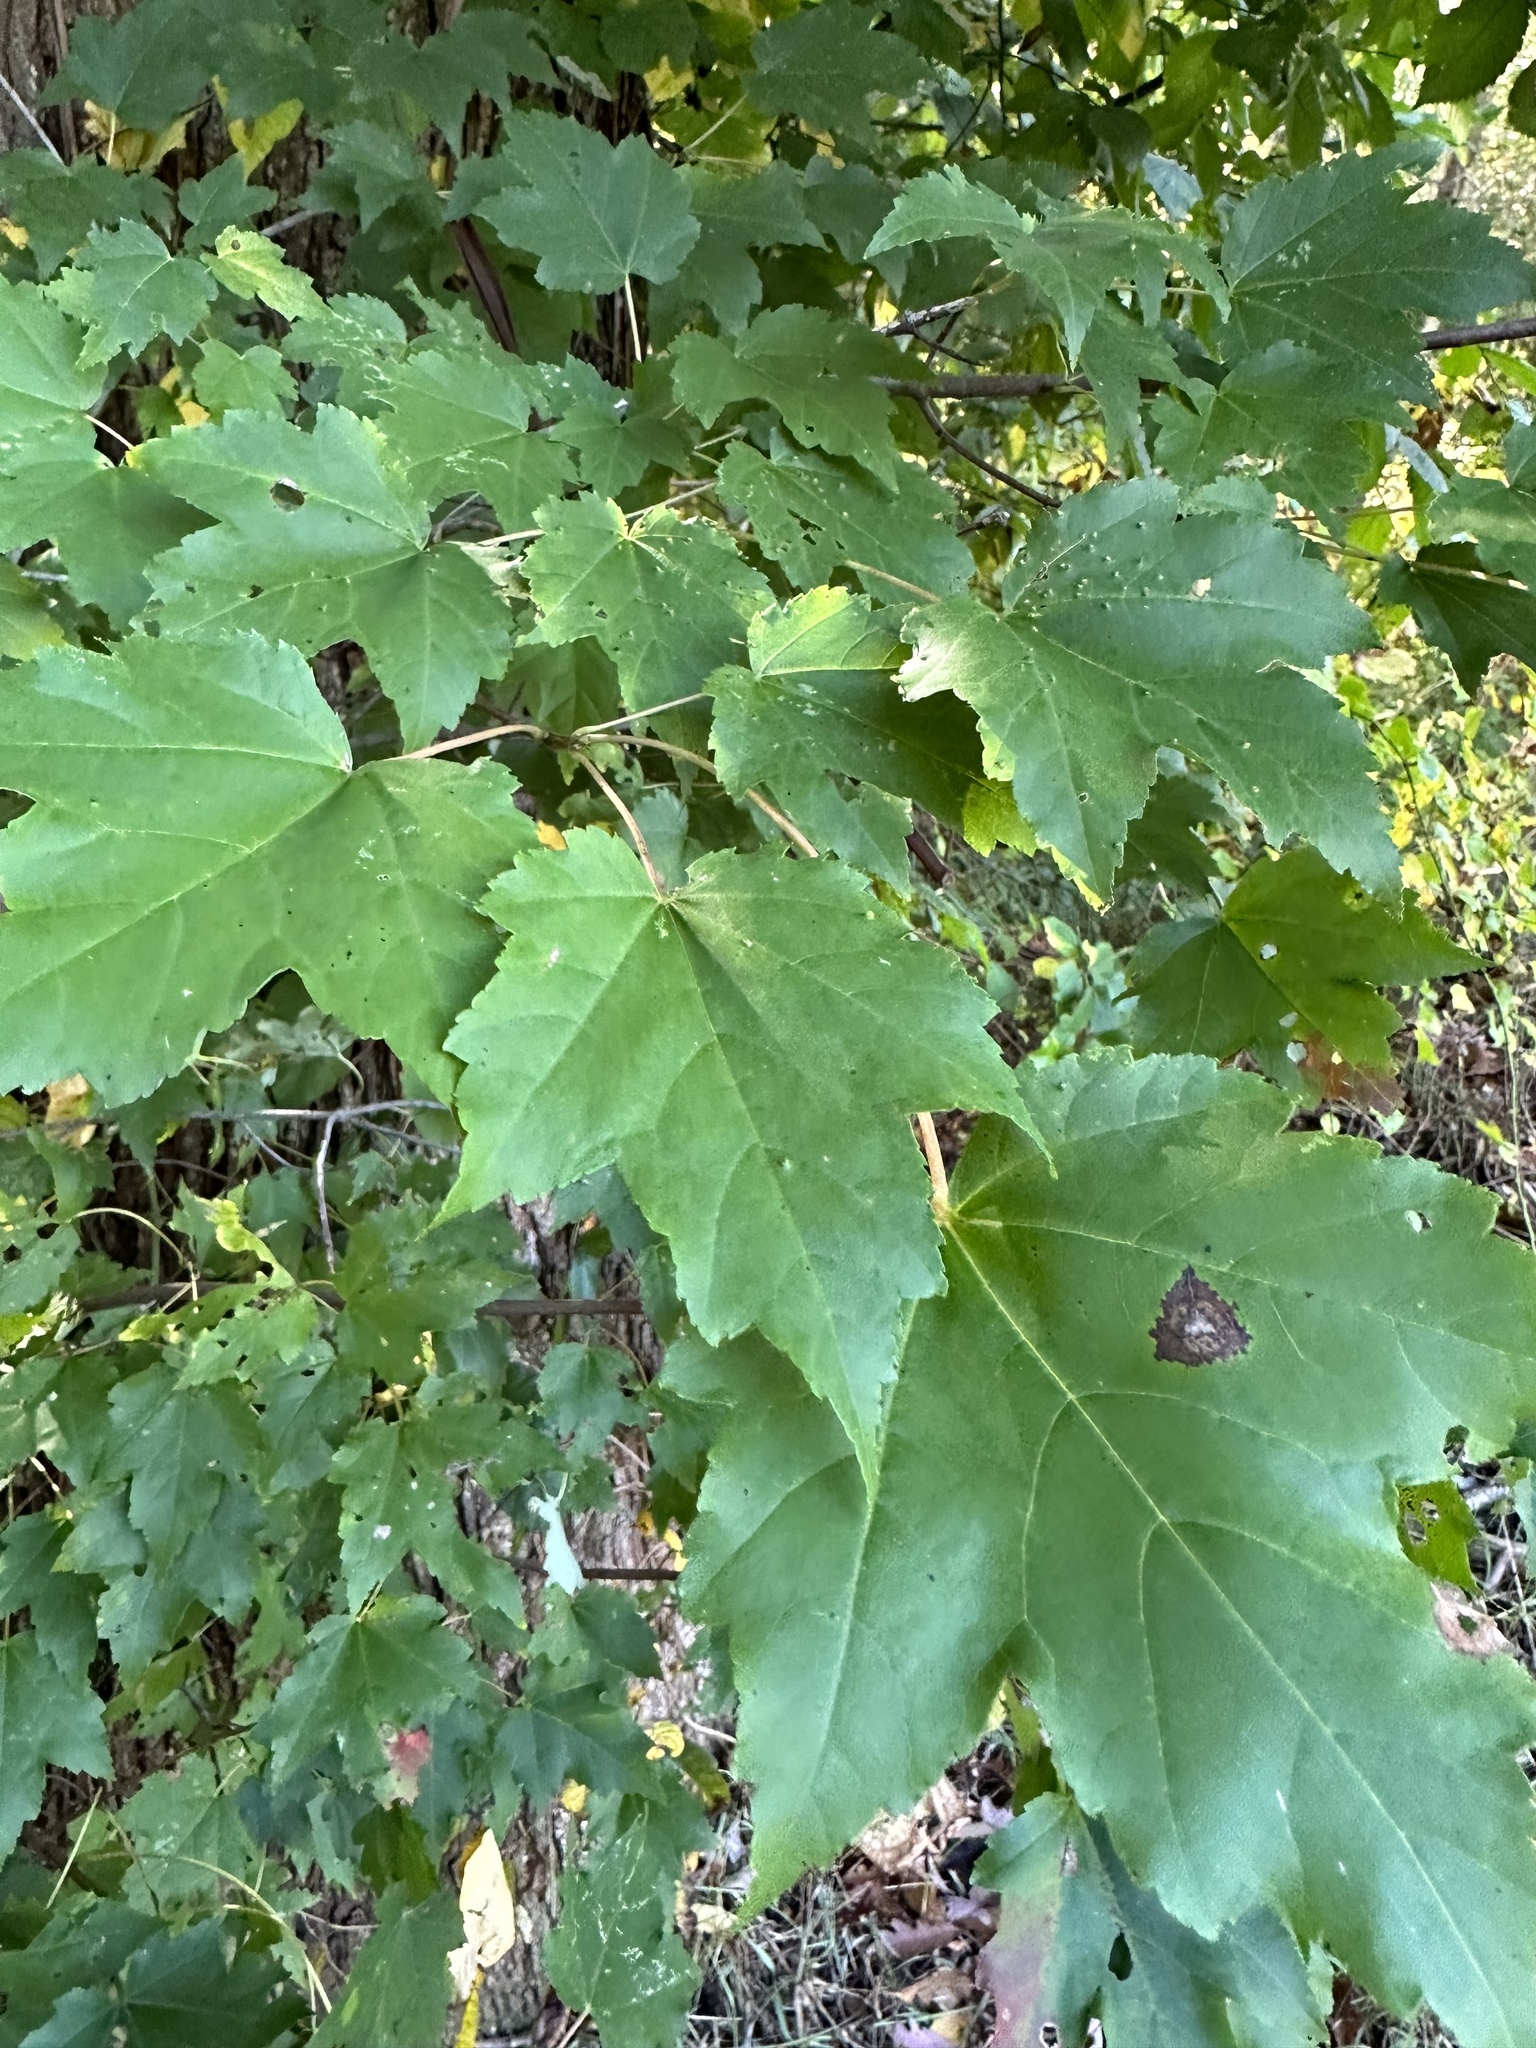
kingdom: Plantae
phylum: Tracheophyta
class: Magnoliopsida
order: Sapindales
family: Sapindaceae
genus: Acer
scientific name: Acer rubrum
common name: Red maple
